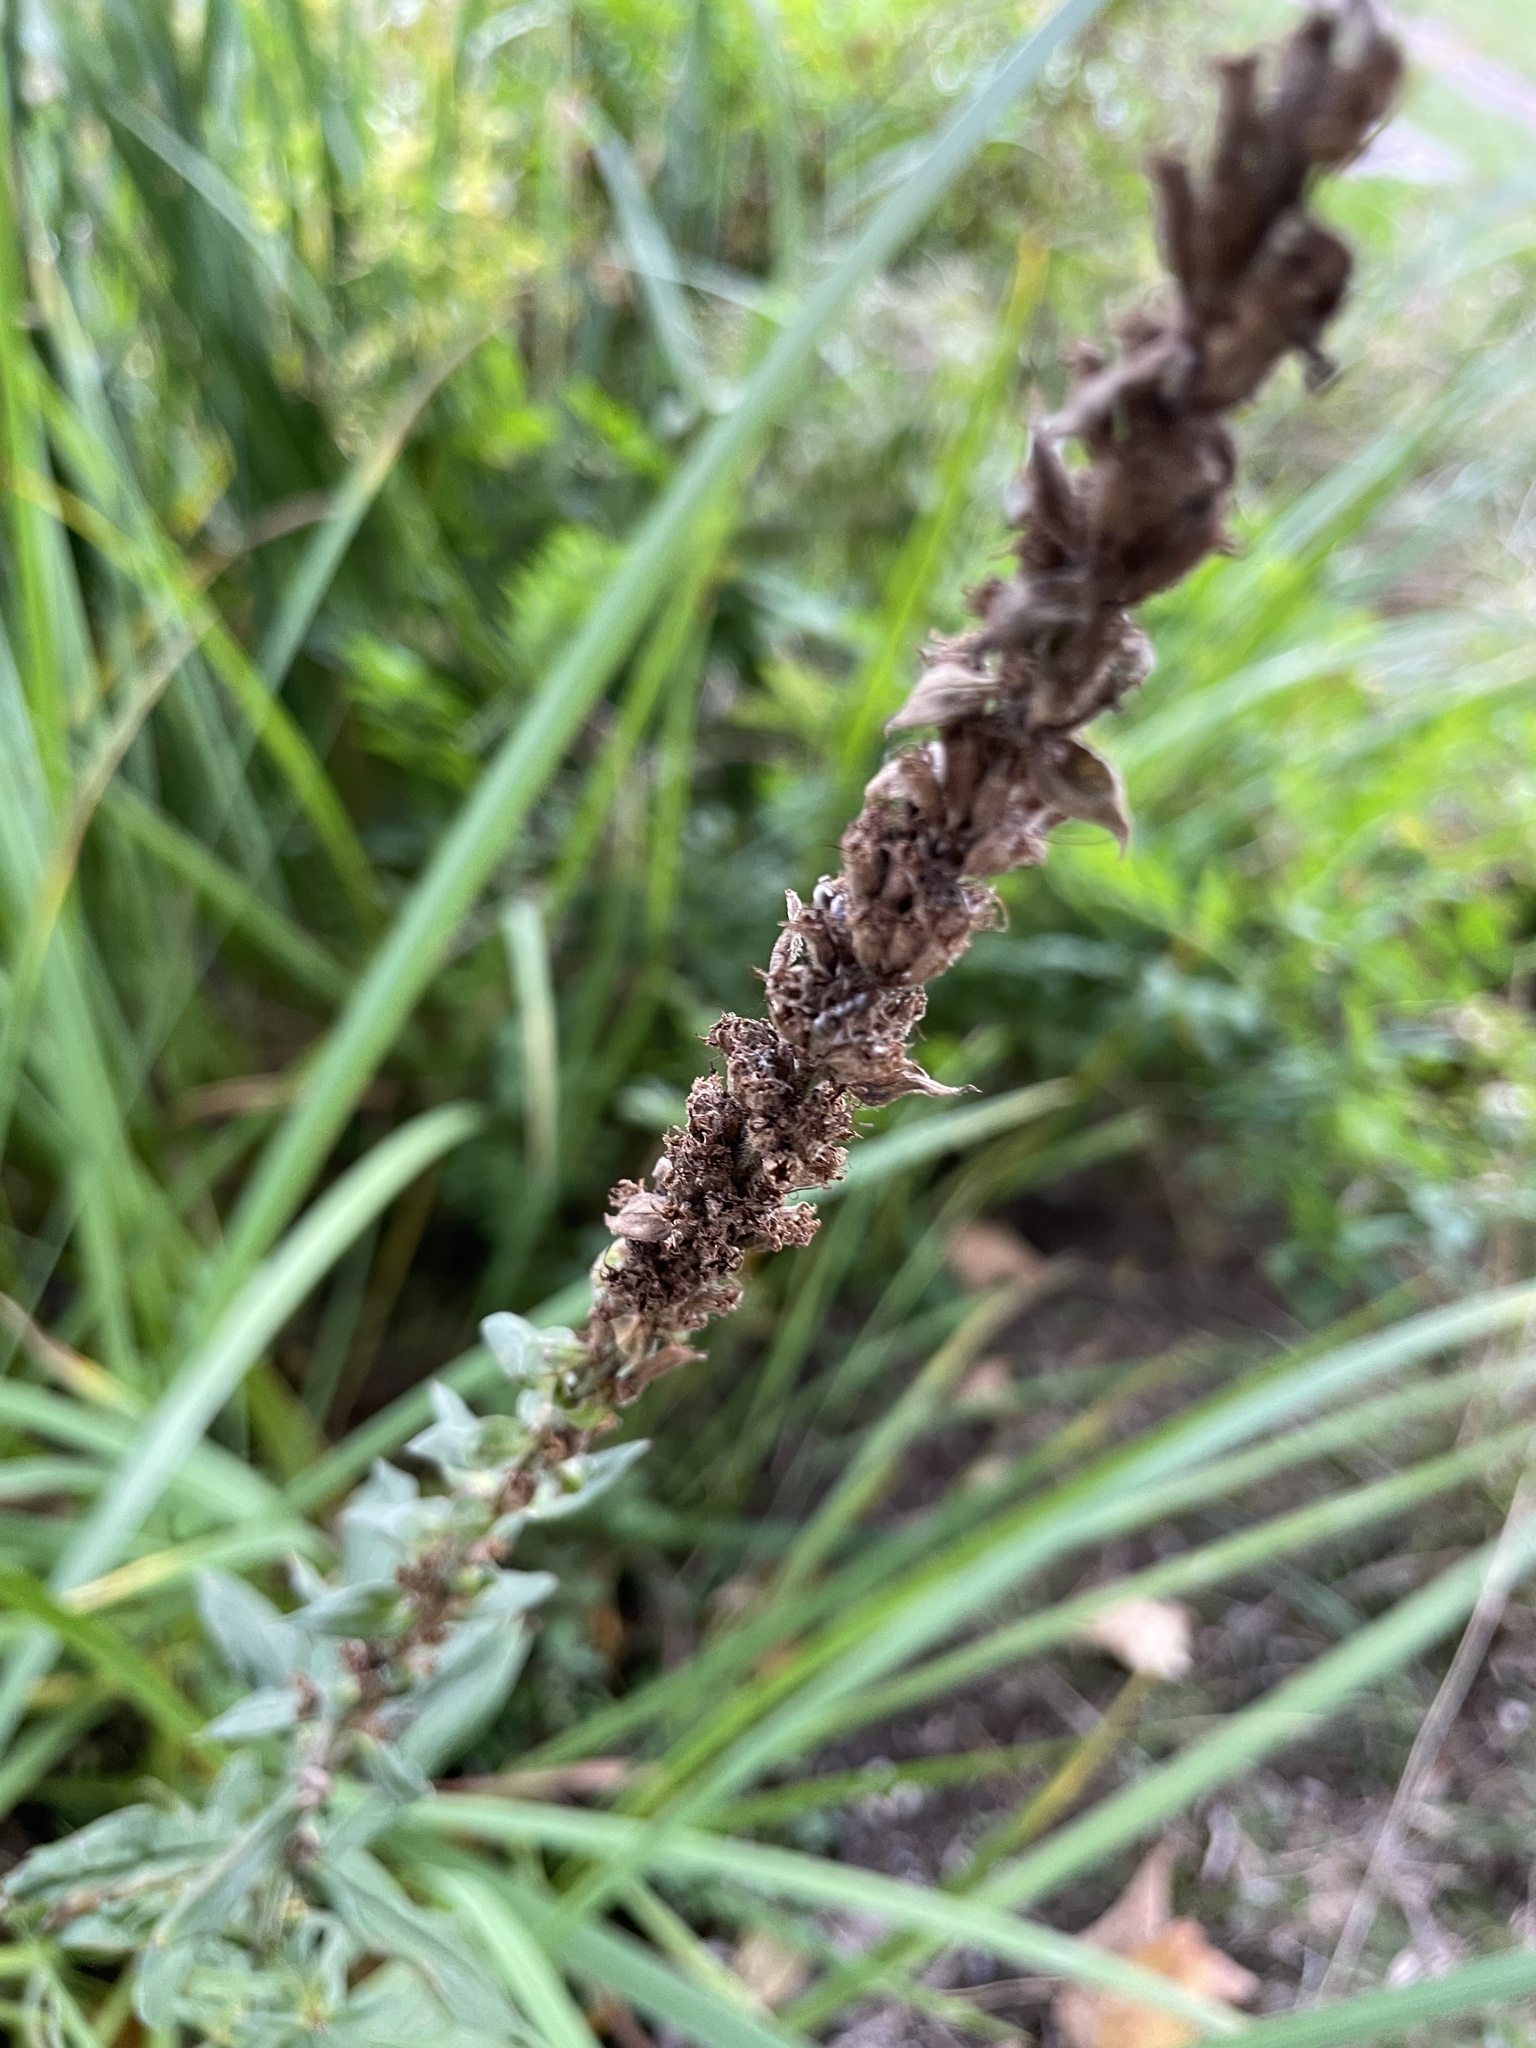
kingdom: Plantae
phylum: Tracheophyta
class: Magnoliopsida
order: Myrtales
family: Lythraceae
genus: Lythrum
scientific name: Lythrum salicaria
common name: Purple loosestrife
